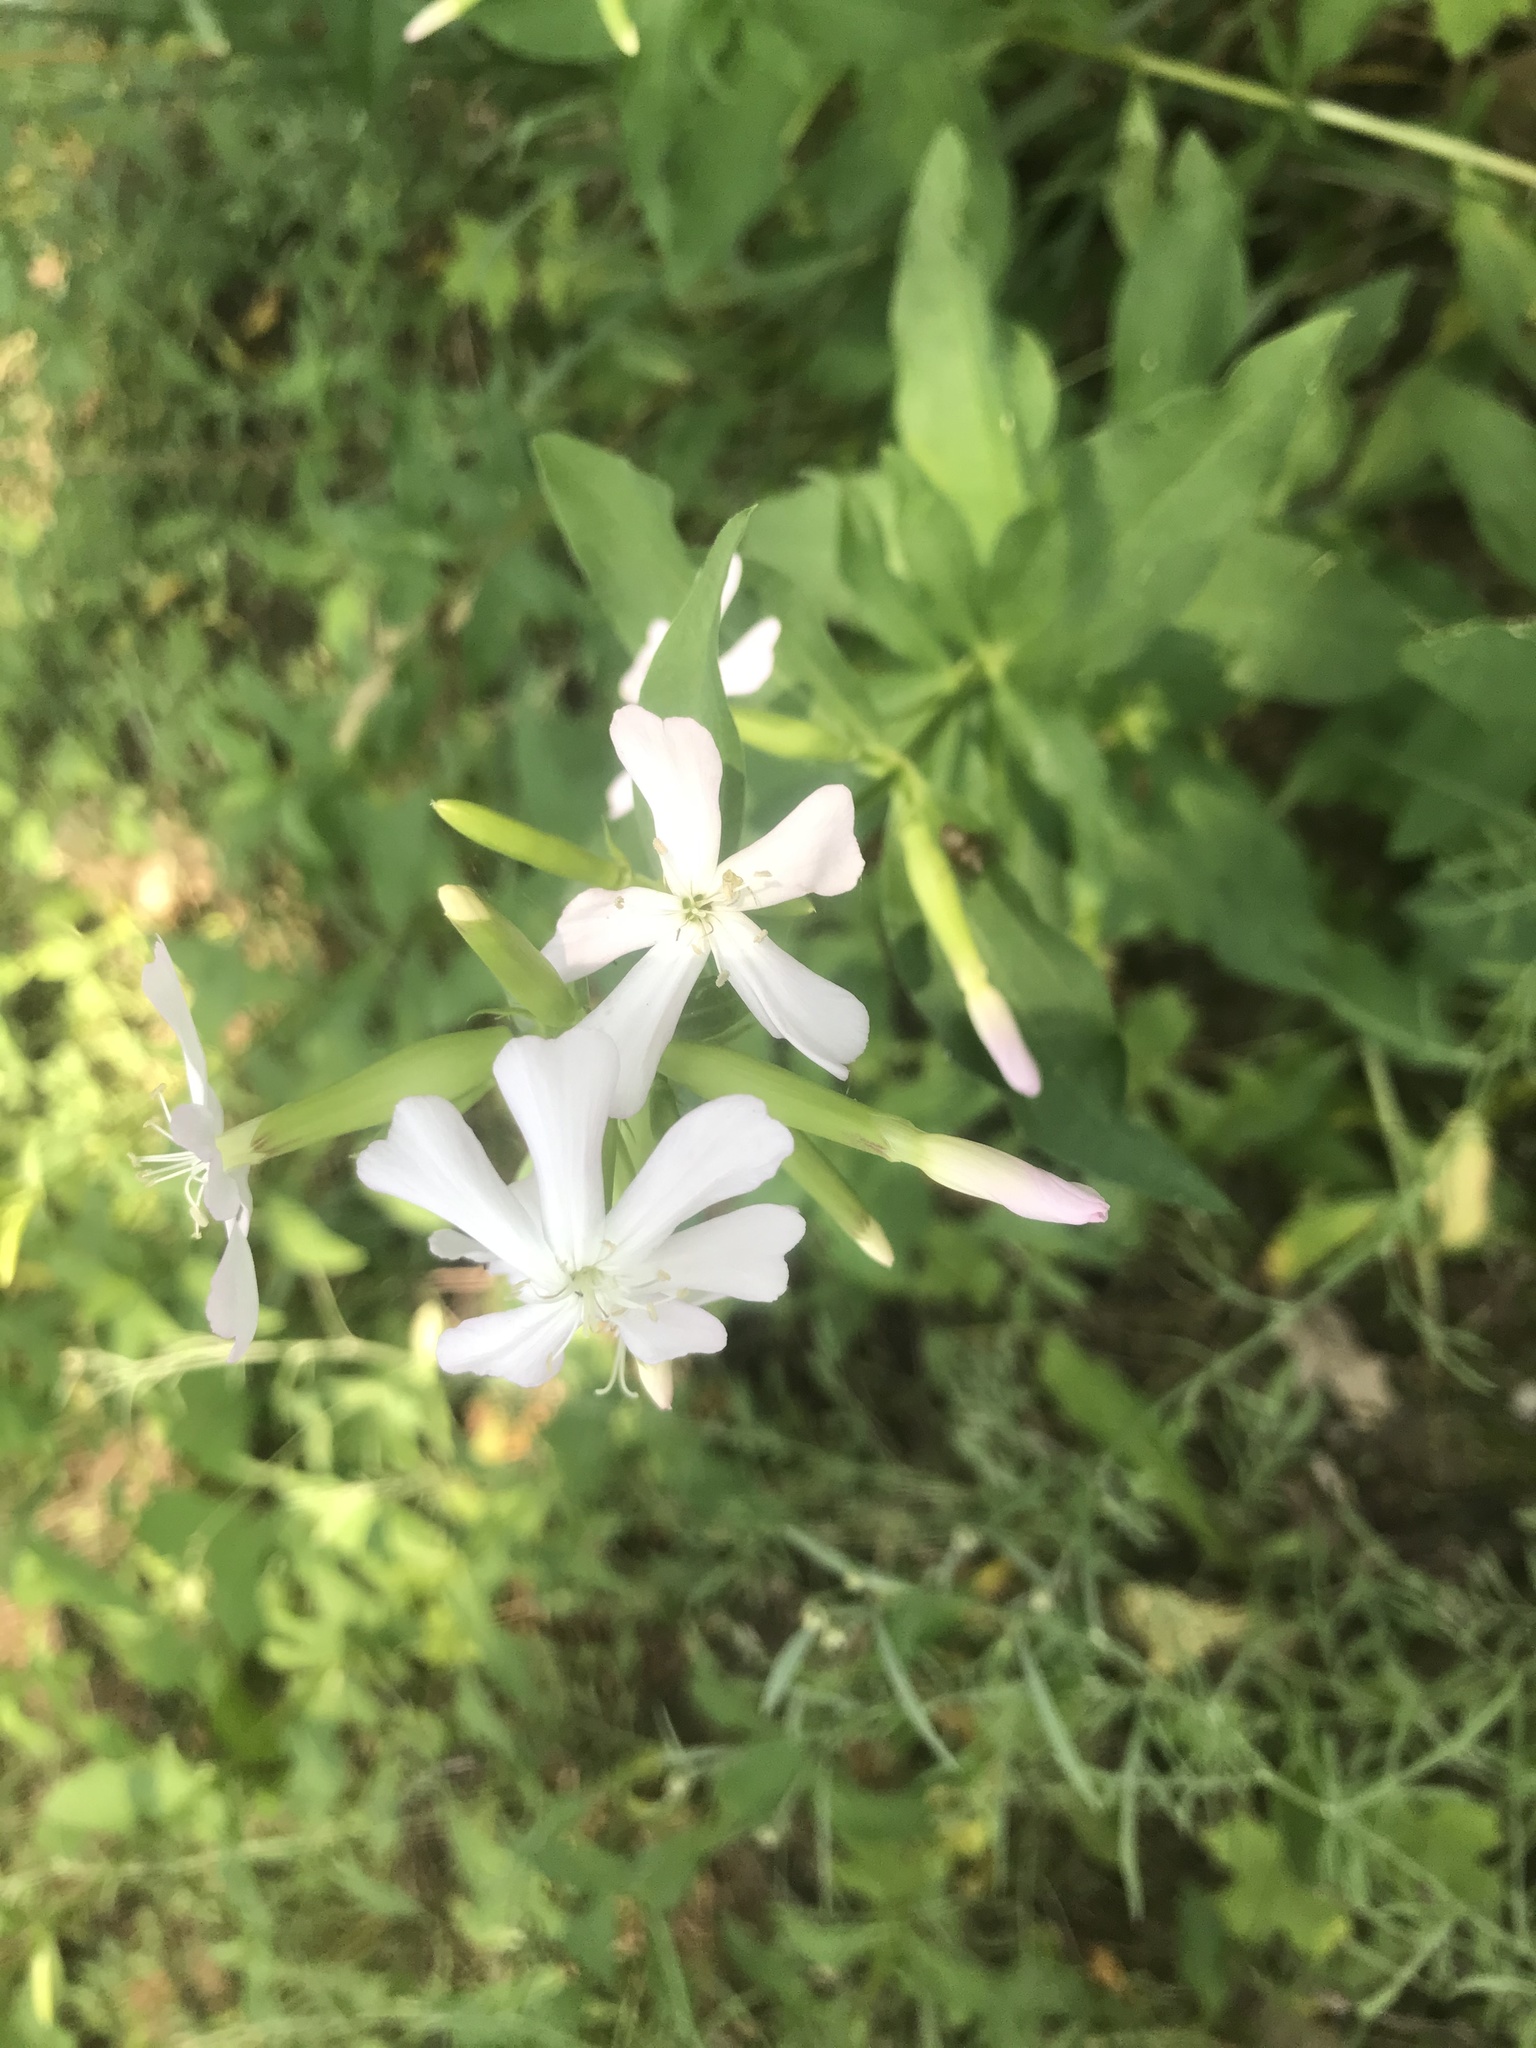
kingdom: Plantae
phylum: Tracheophyta
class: Magnoliopsida
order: Caryophyllales
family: Caryophyllaceae
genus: Saponaria
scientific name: Saponaria officinalis
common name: Soapwort
